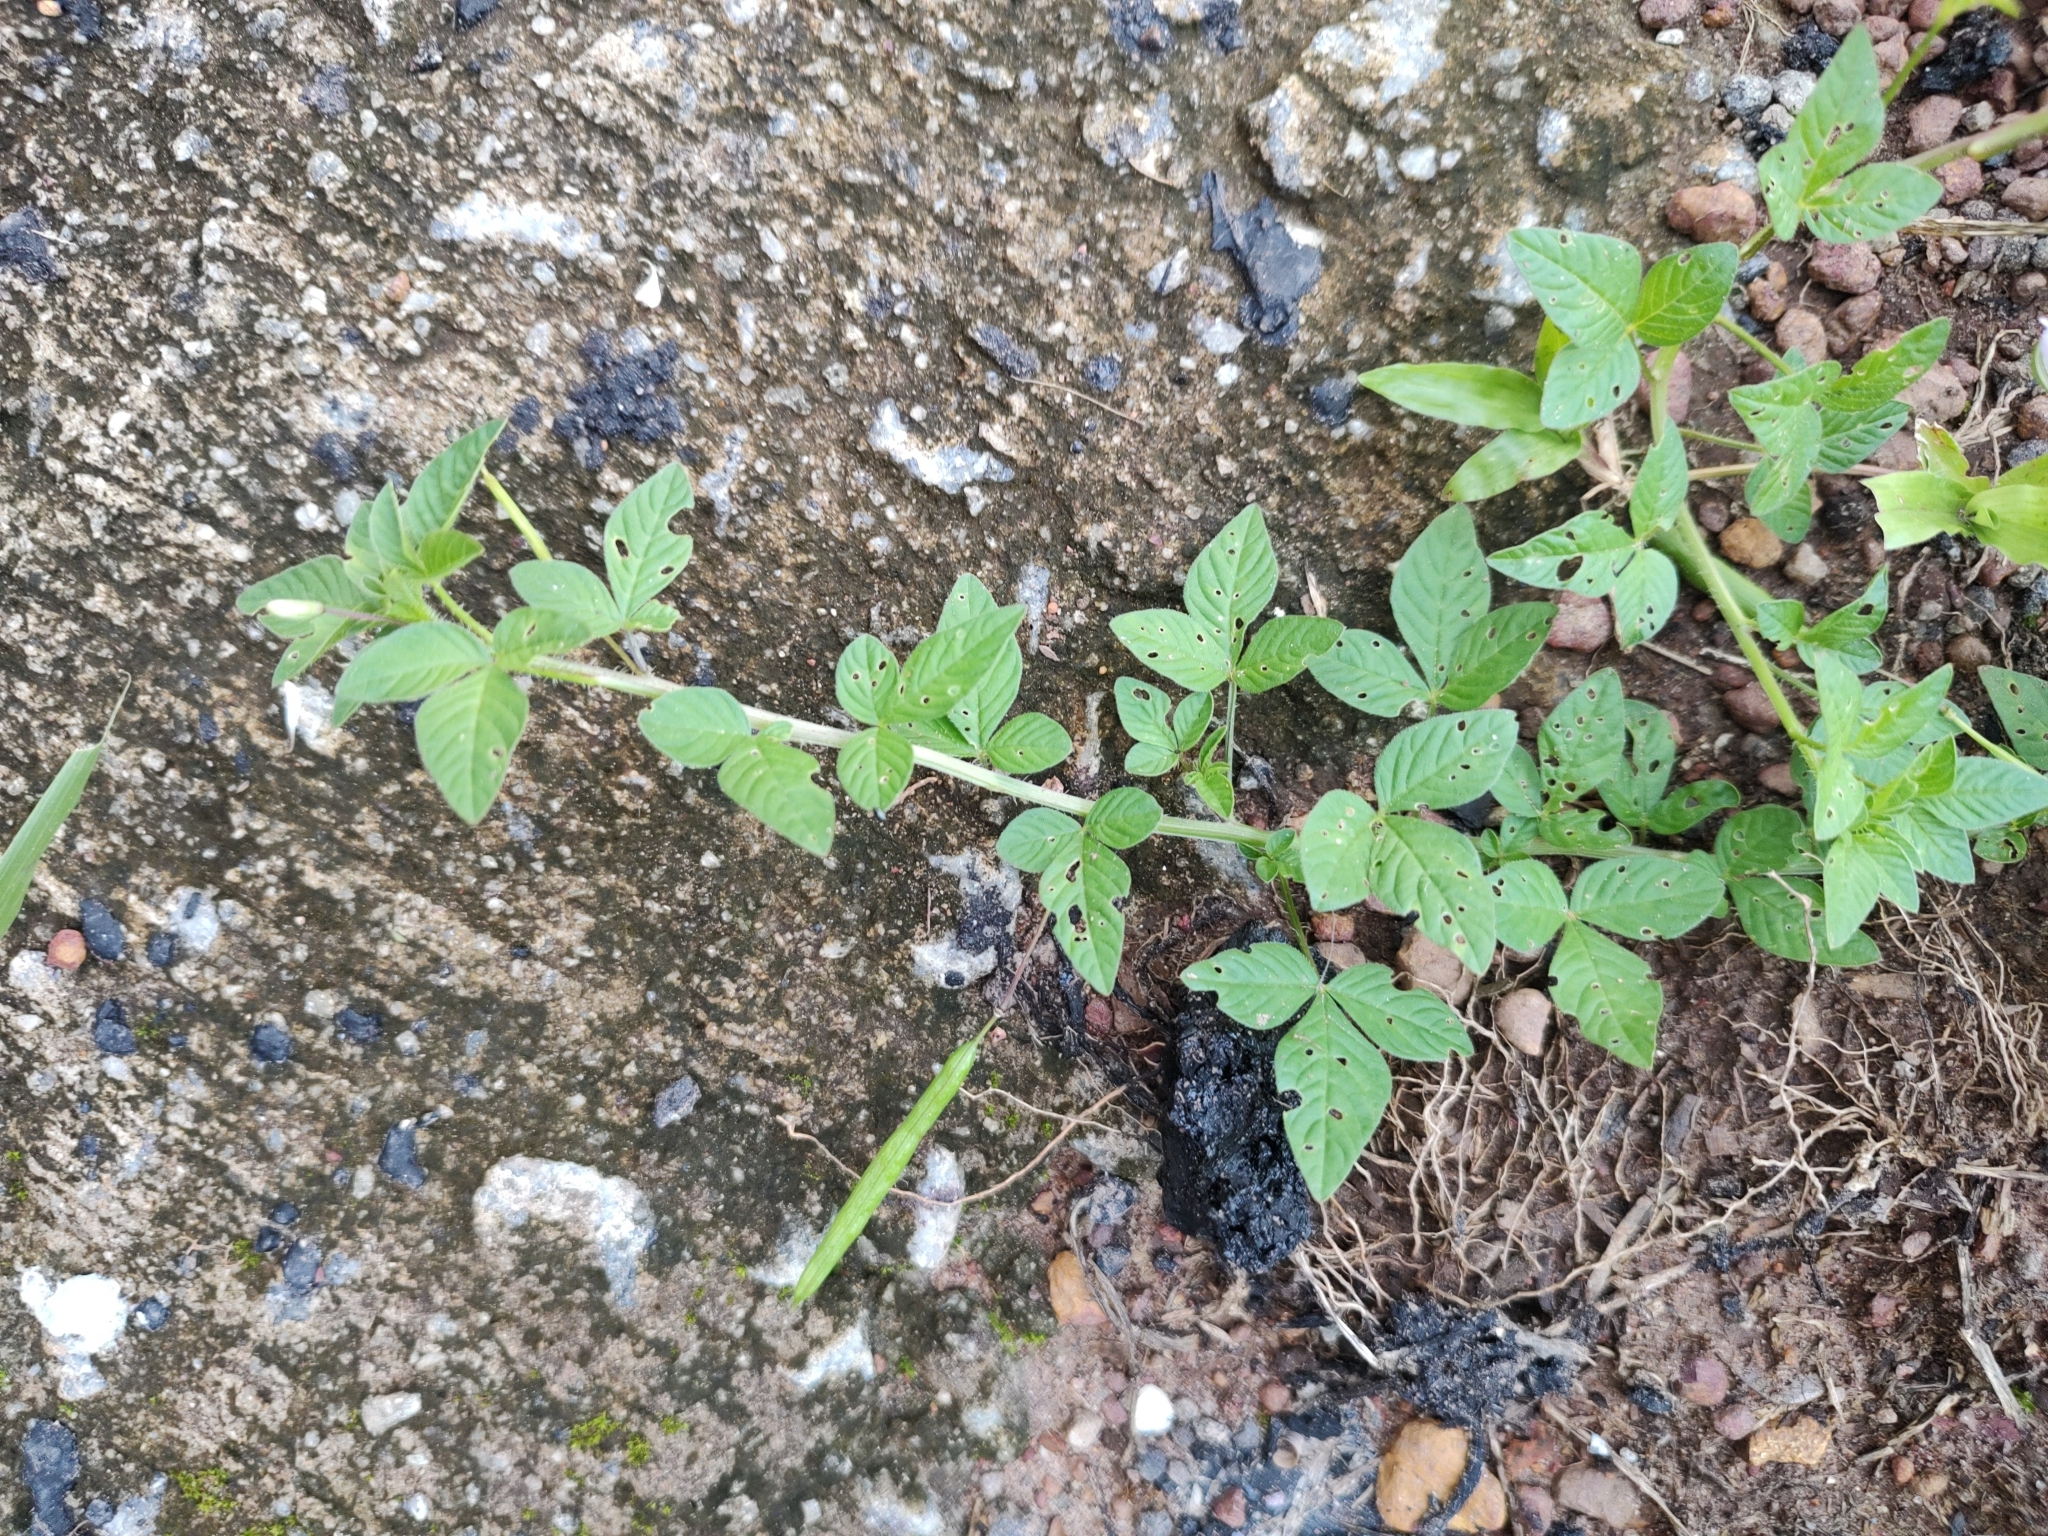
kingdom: Plantae
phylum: Tracheophyta
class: Magnoliopsida
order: Brassicales
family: Cleomaceae
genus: Sieruela
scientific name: Sieruela rutidosperma
